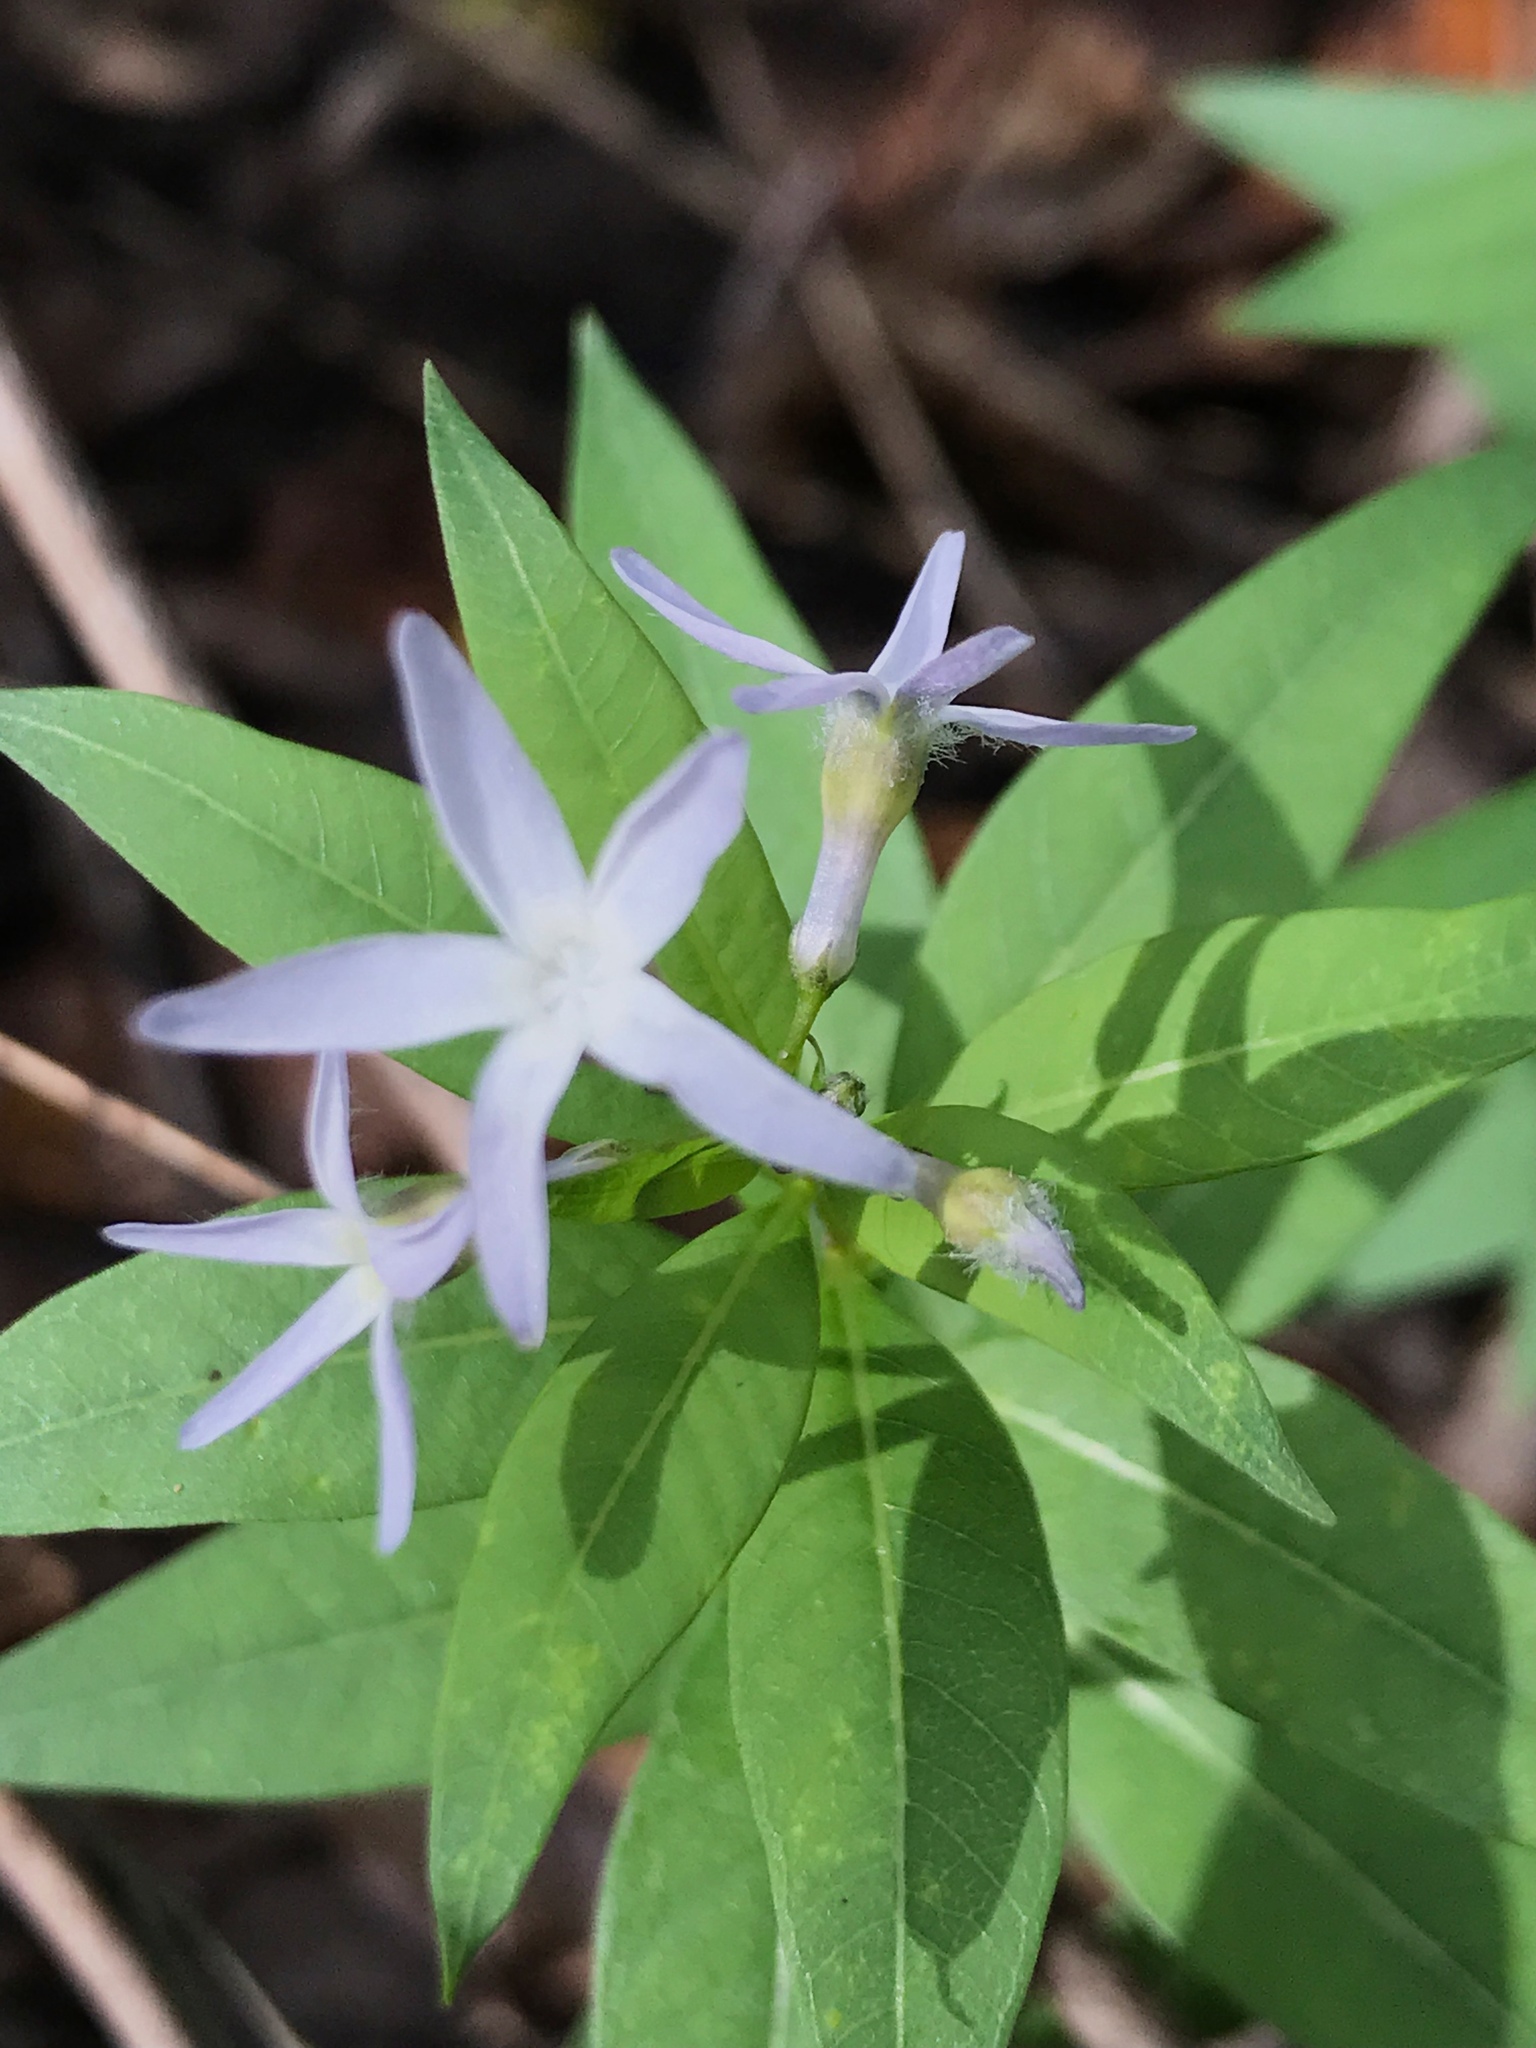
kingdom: Plantae
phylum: Tracheophyta
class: Magnoliopsida
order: Gentianales
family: Apocynaceae
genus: Amsonia
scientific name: Amsonia tabernaemontana
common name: Texas-star
